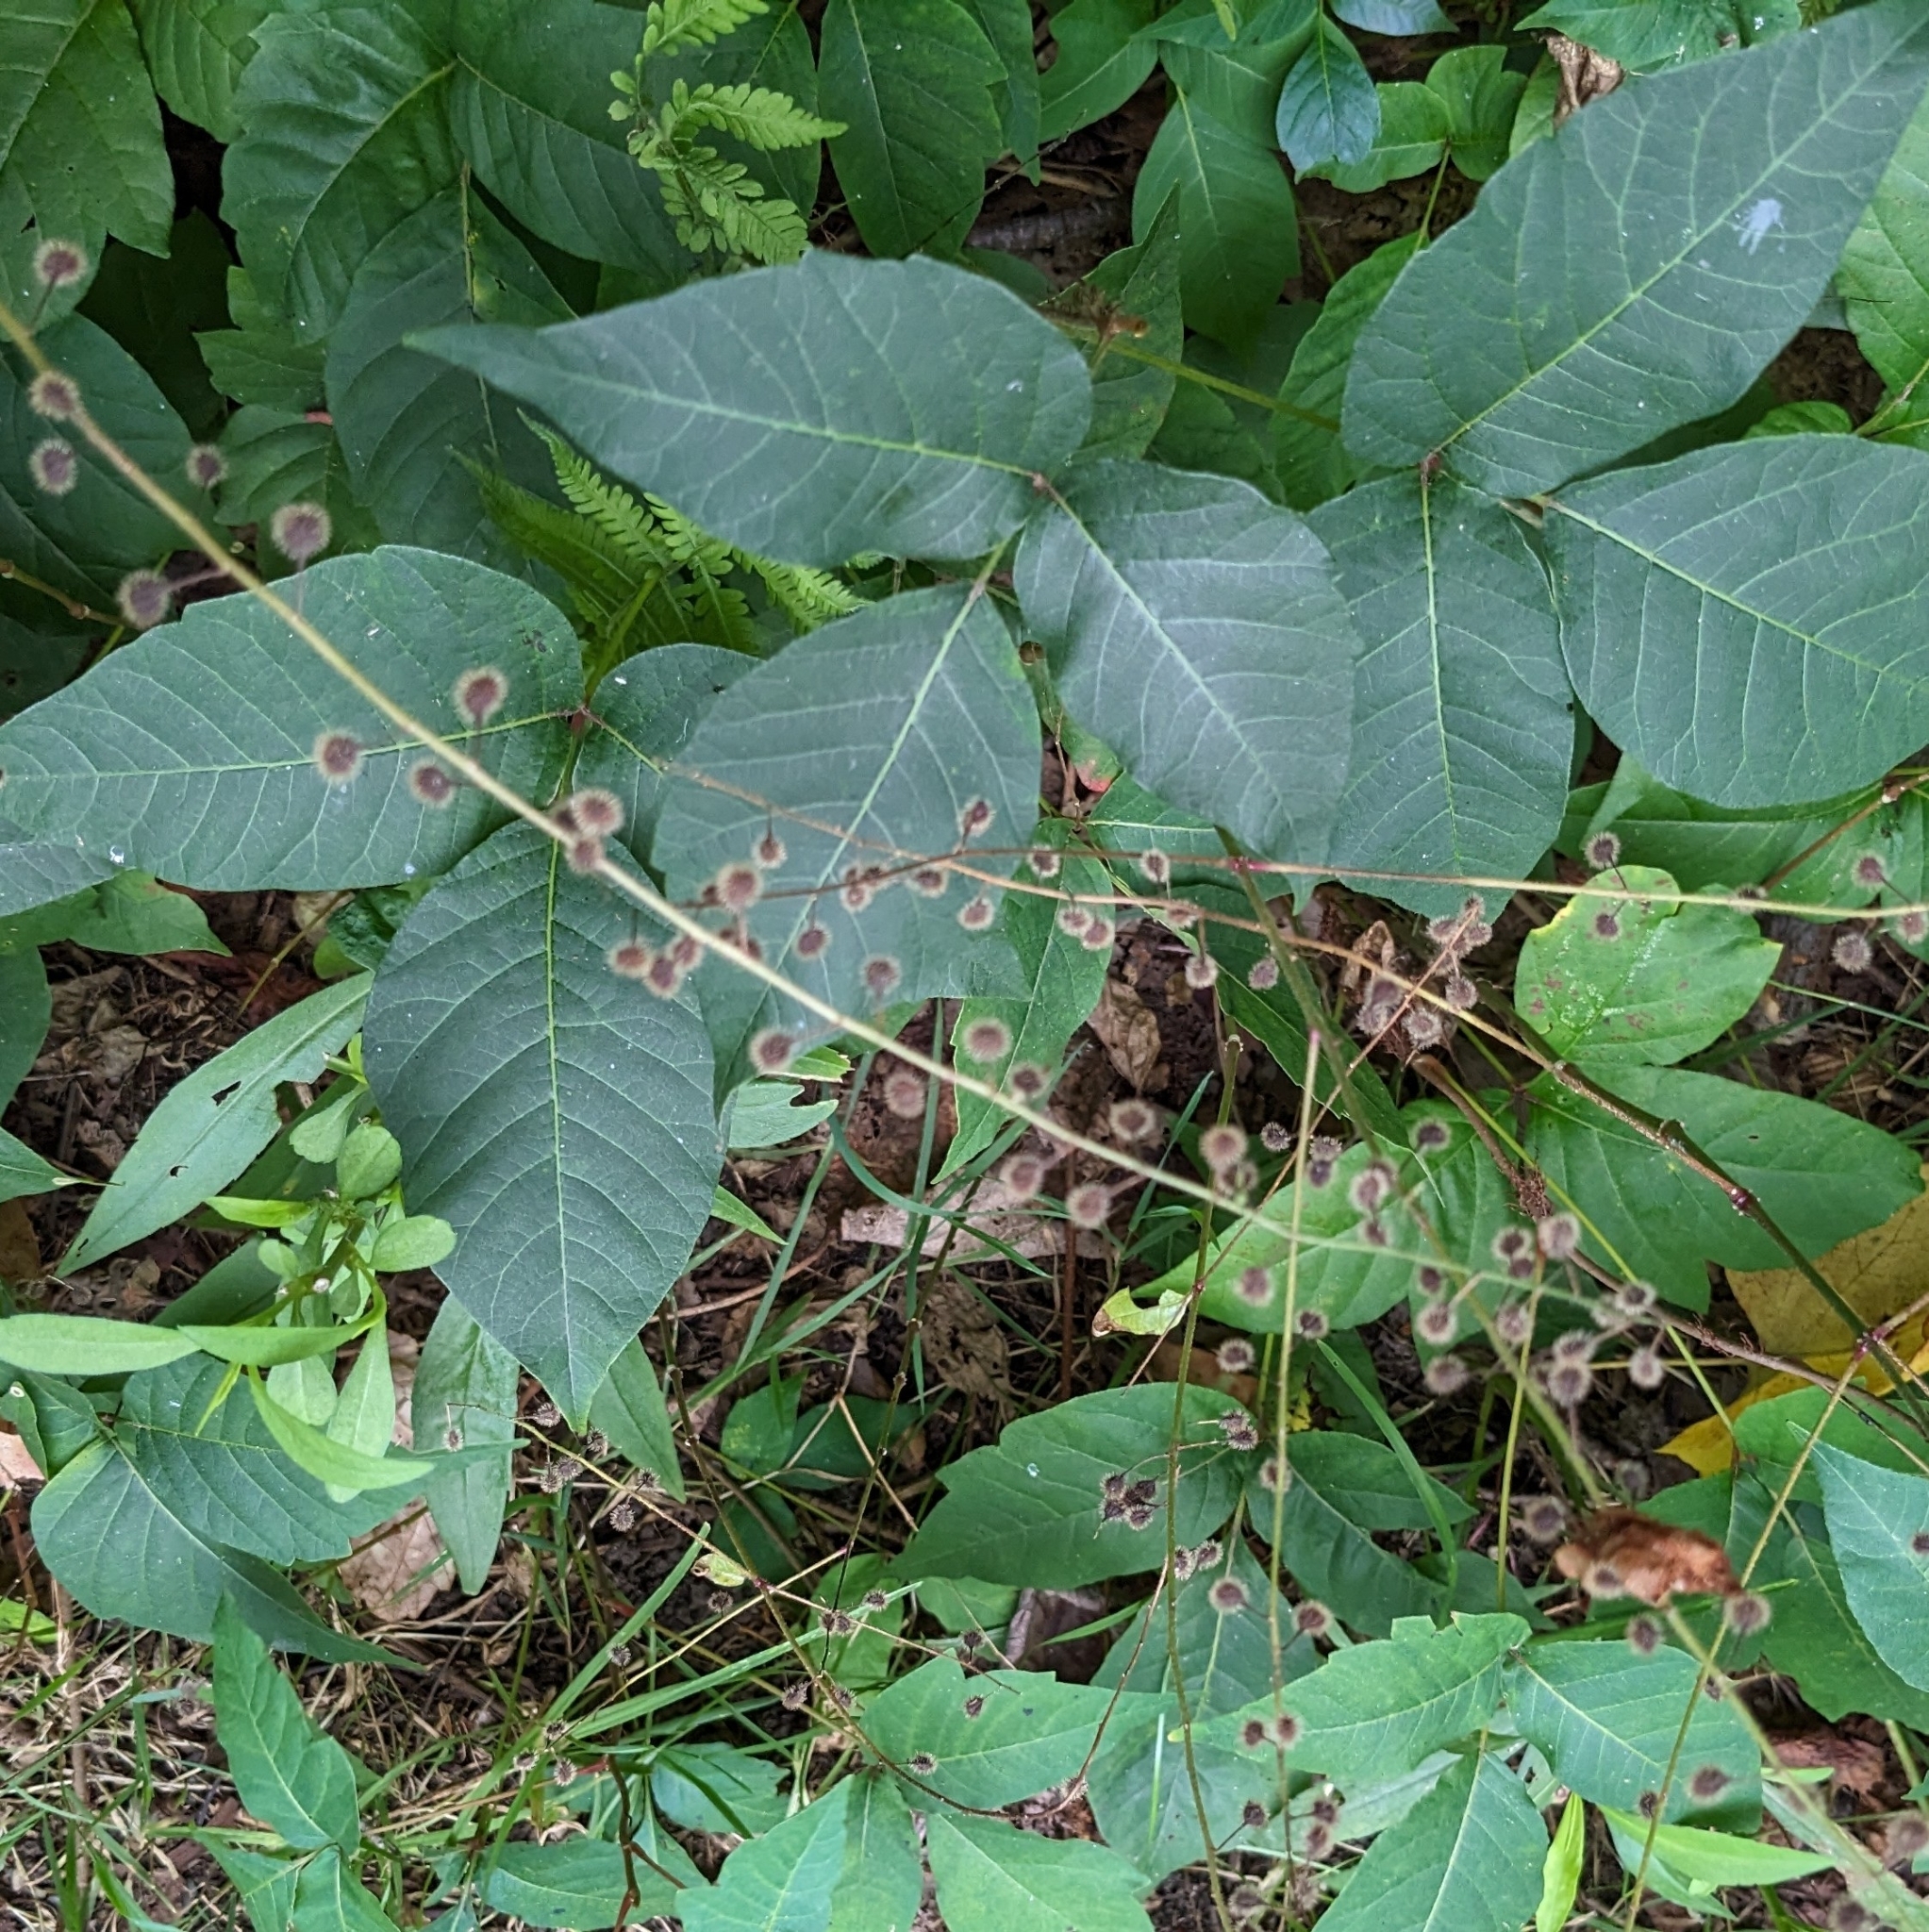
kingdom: Plantae
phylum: Tracheophyta
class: Magnoliopsida
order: Sapindales
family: Anacardiaceae
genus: Toxicodendron
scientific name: Toxicodendron radicans
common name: Poison ivy
